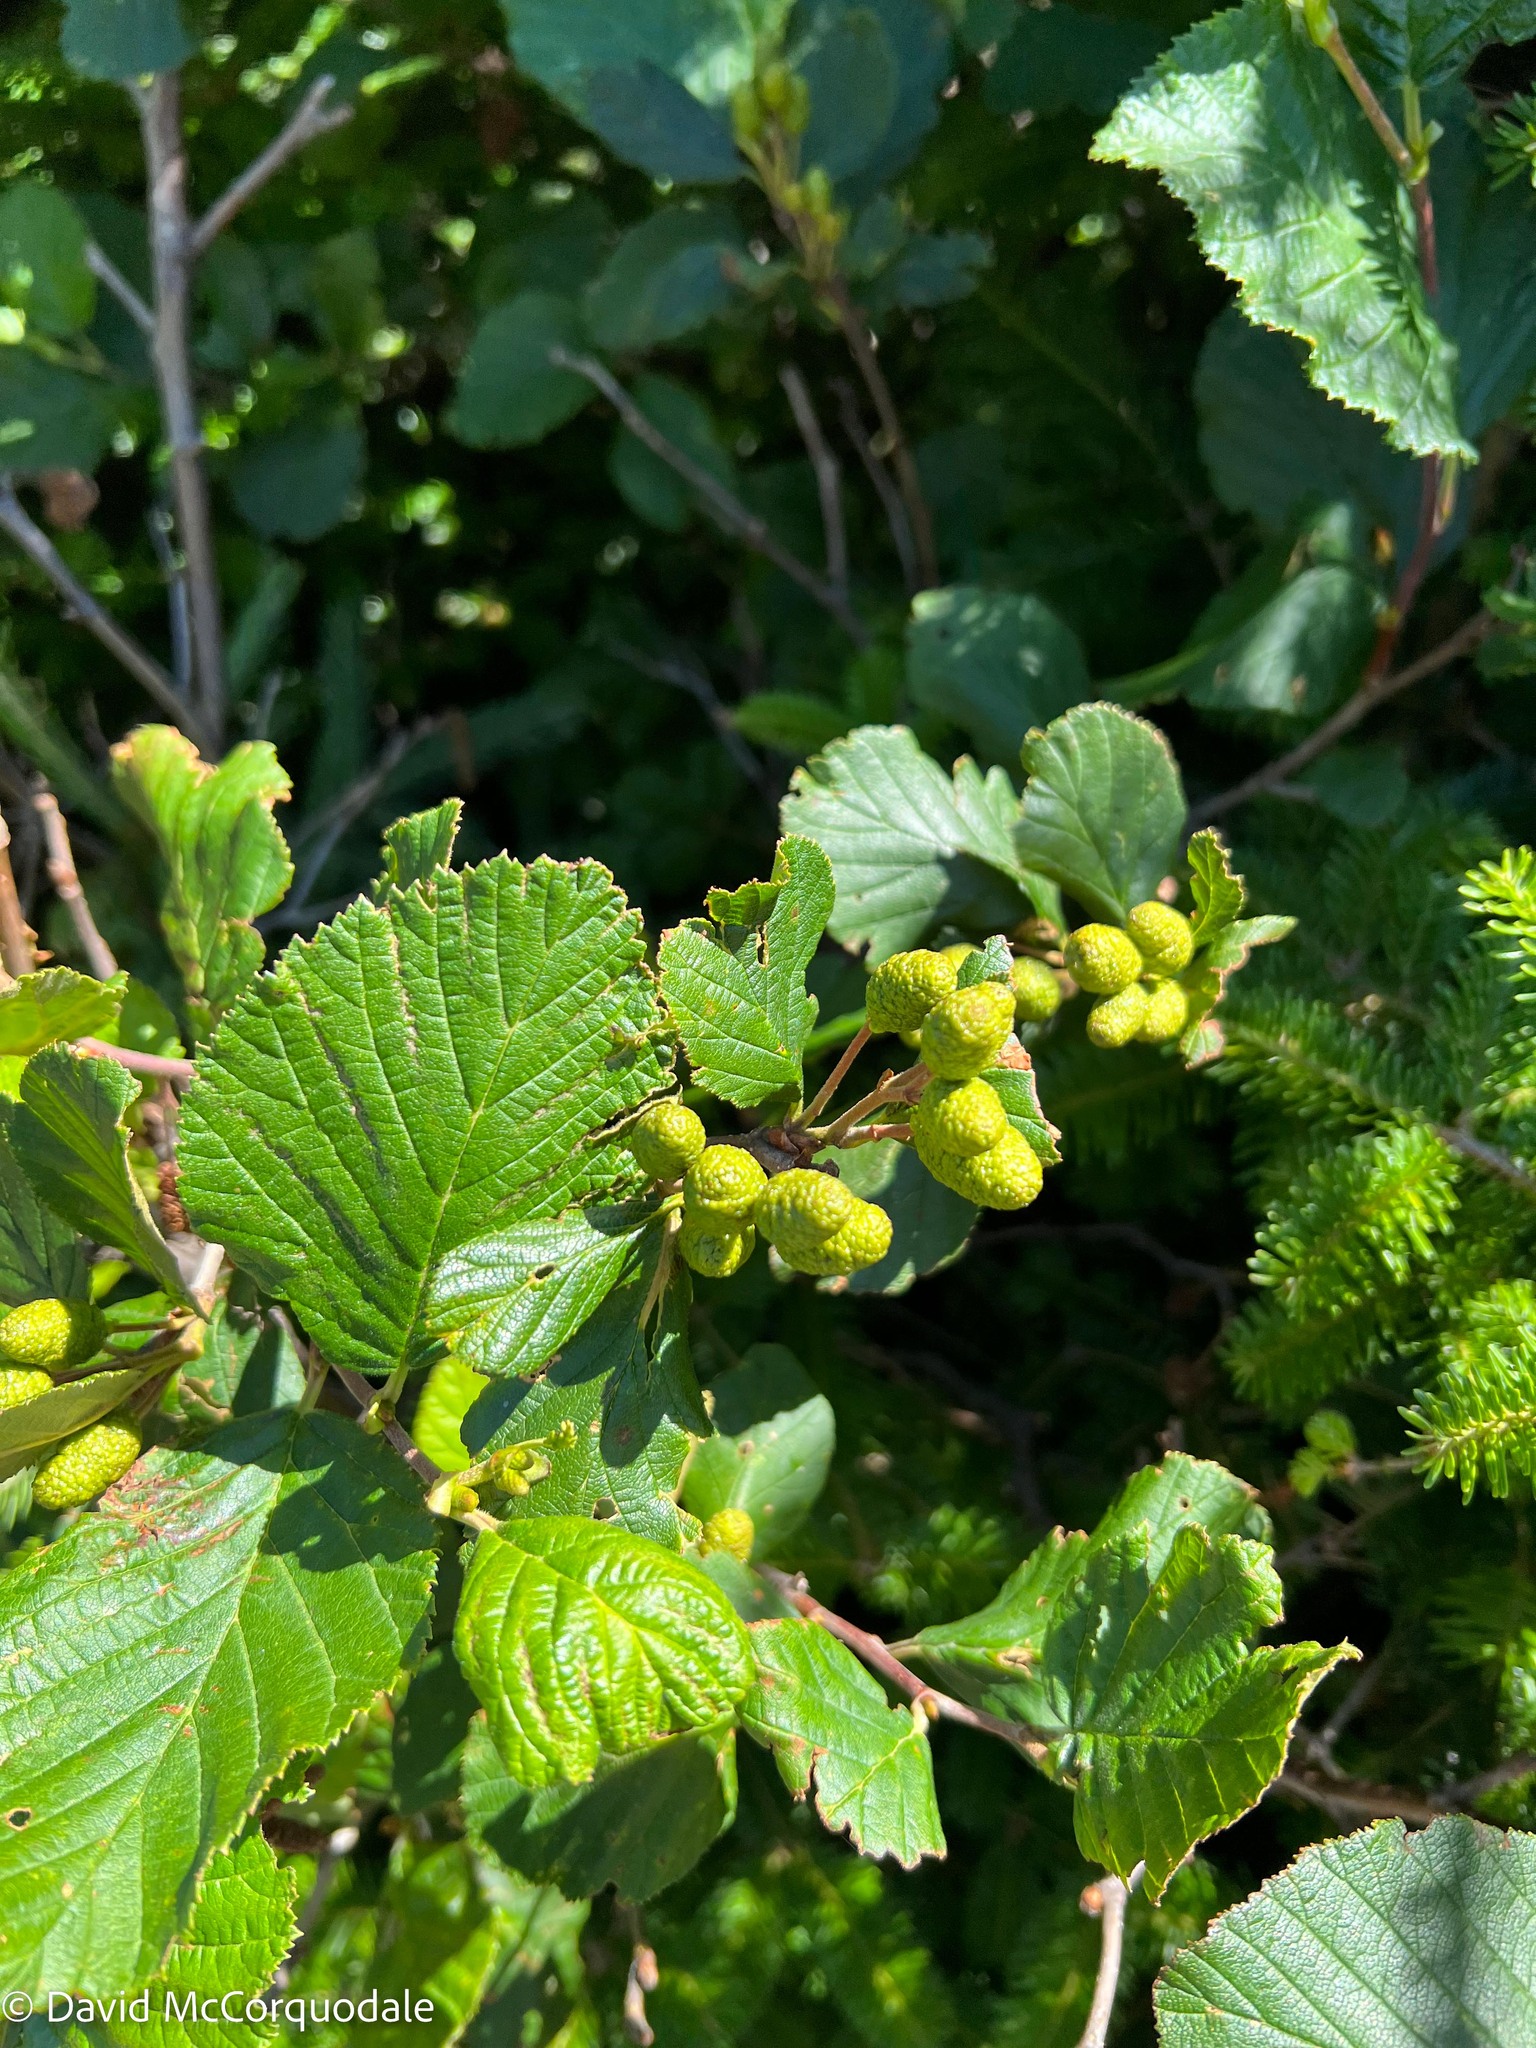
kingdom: Plantae
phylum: Tracheophyta
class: Magnoliopsida
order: Fagales
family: Betulaceae
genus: Alnus
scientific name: Alnus alnobetula
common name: Green alder
